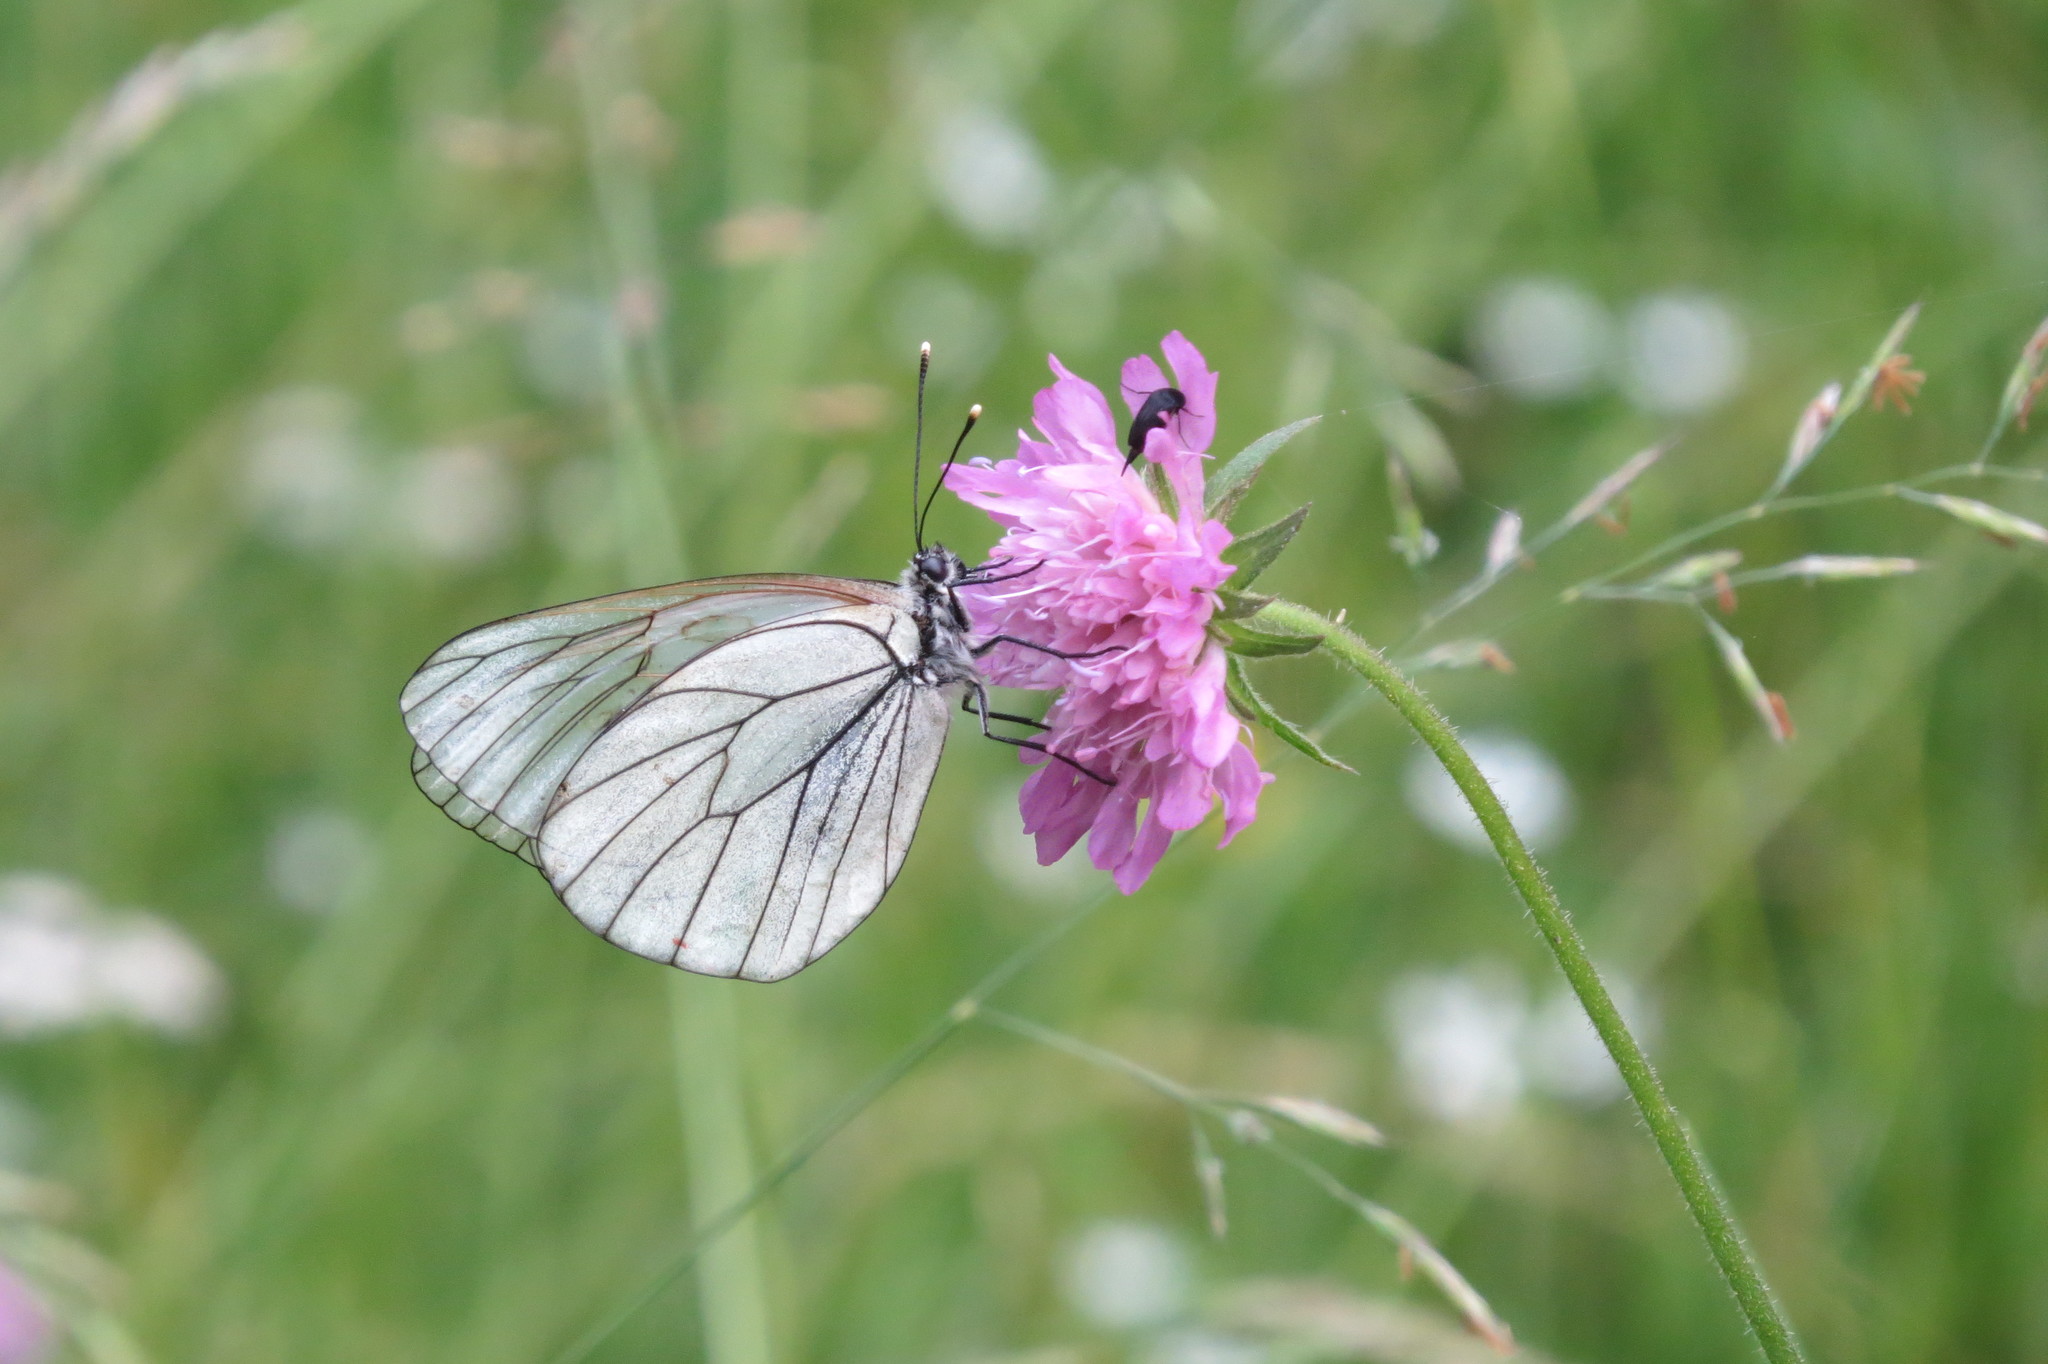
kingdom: Animalia
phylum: Arthropoda
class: Insecta
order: Lepidoptera
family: Pieridae
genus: Aporia
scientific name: Aporia crataegi
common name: Black-veined white
